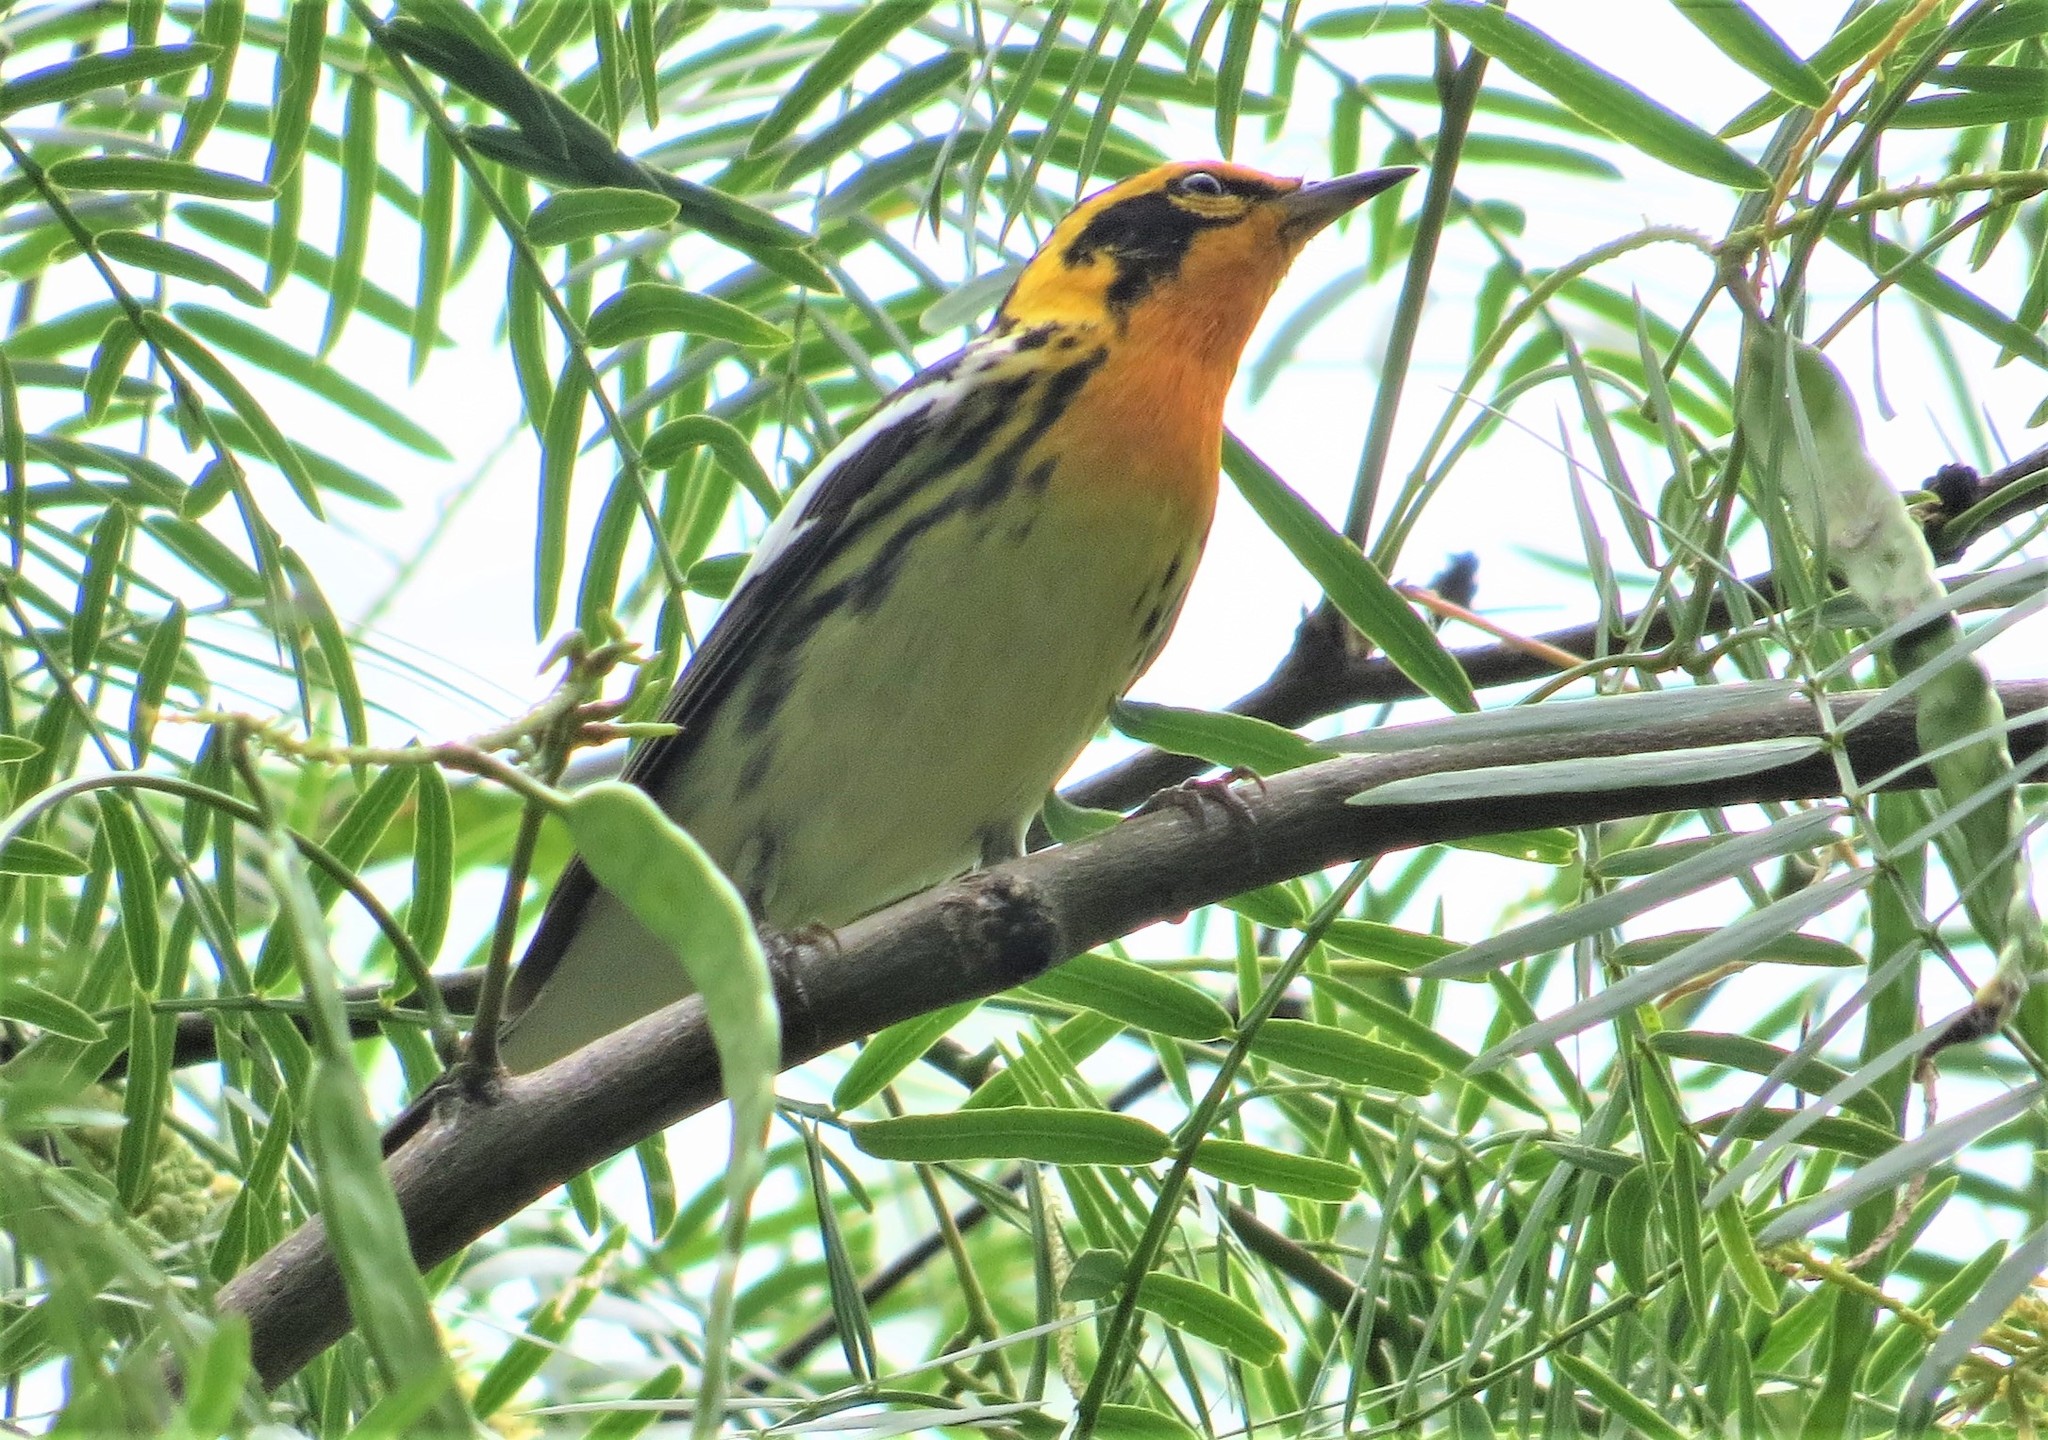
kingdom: Animalia
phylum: Chordata
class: Aves
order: Passeriformes
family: Parulidae
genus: Setophaga
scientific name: Setophaga fusca
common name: Blackburnian warbler
